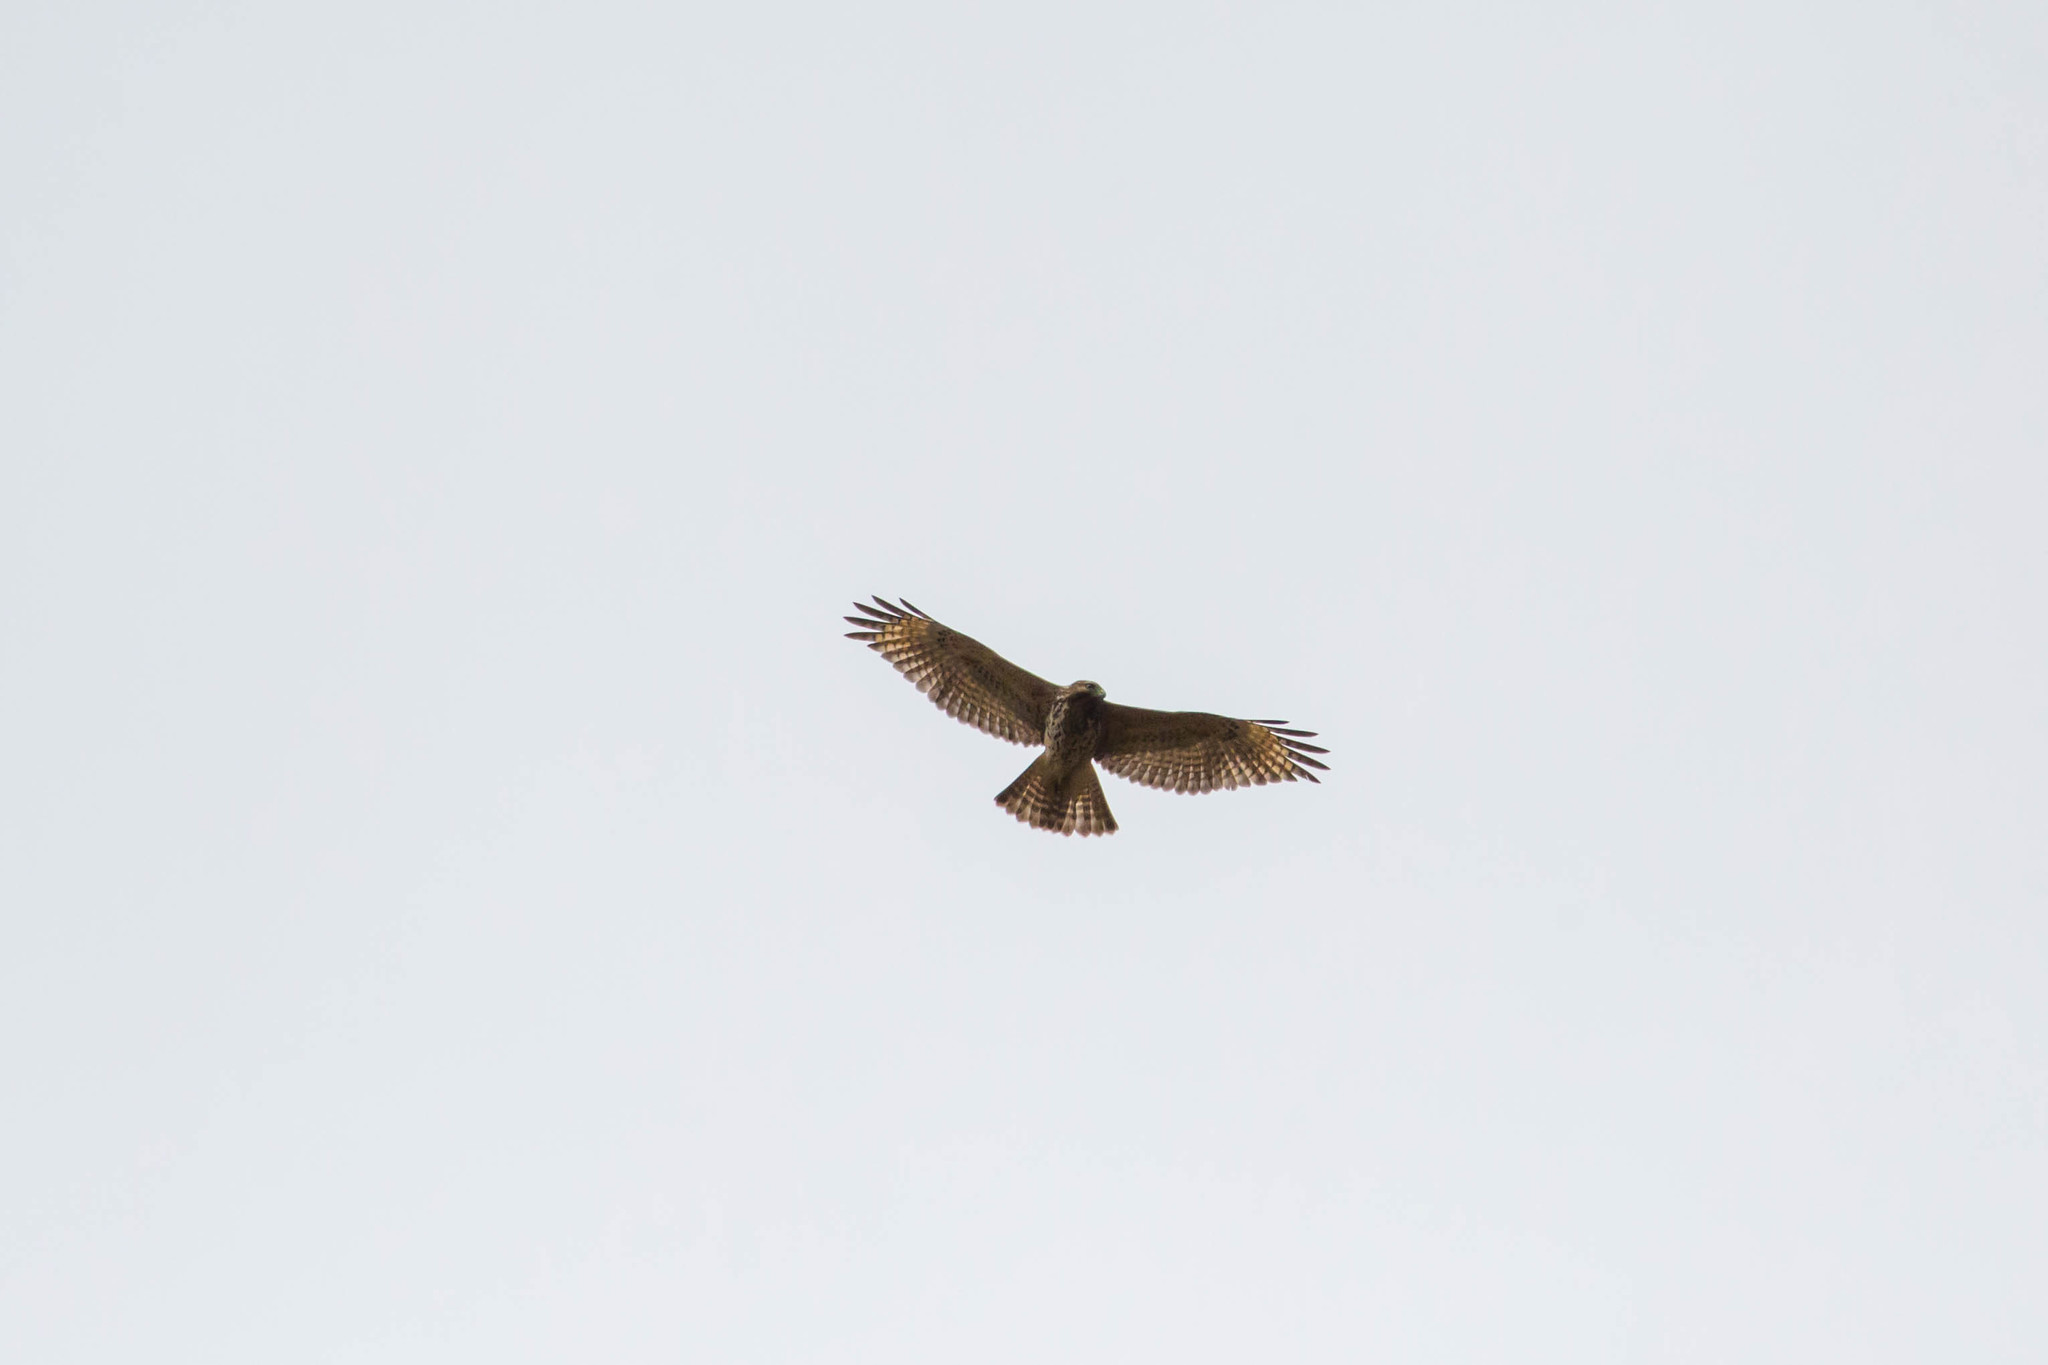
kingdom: Animalia
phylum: Chordata
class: Aves
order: Accipitriformes
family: Accipitridae
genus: Buteo
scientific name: Buteo lineatus
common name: Red-shouldered hawk
